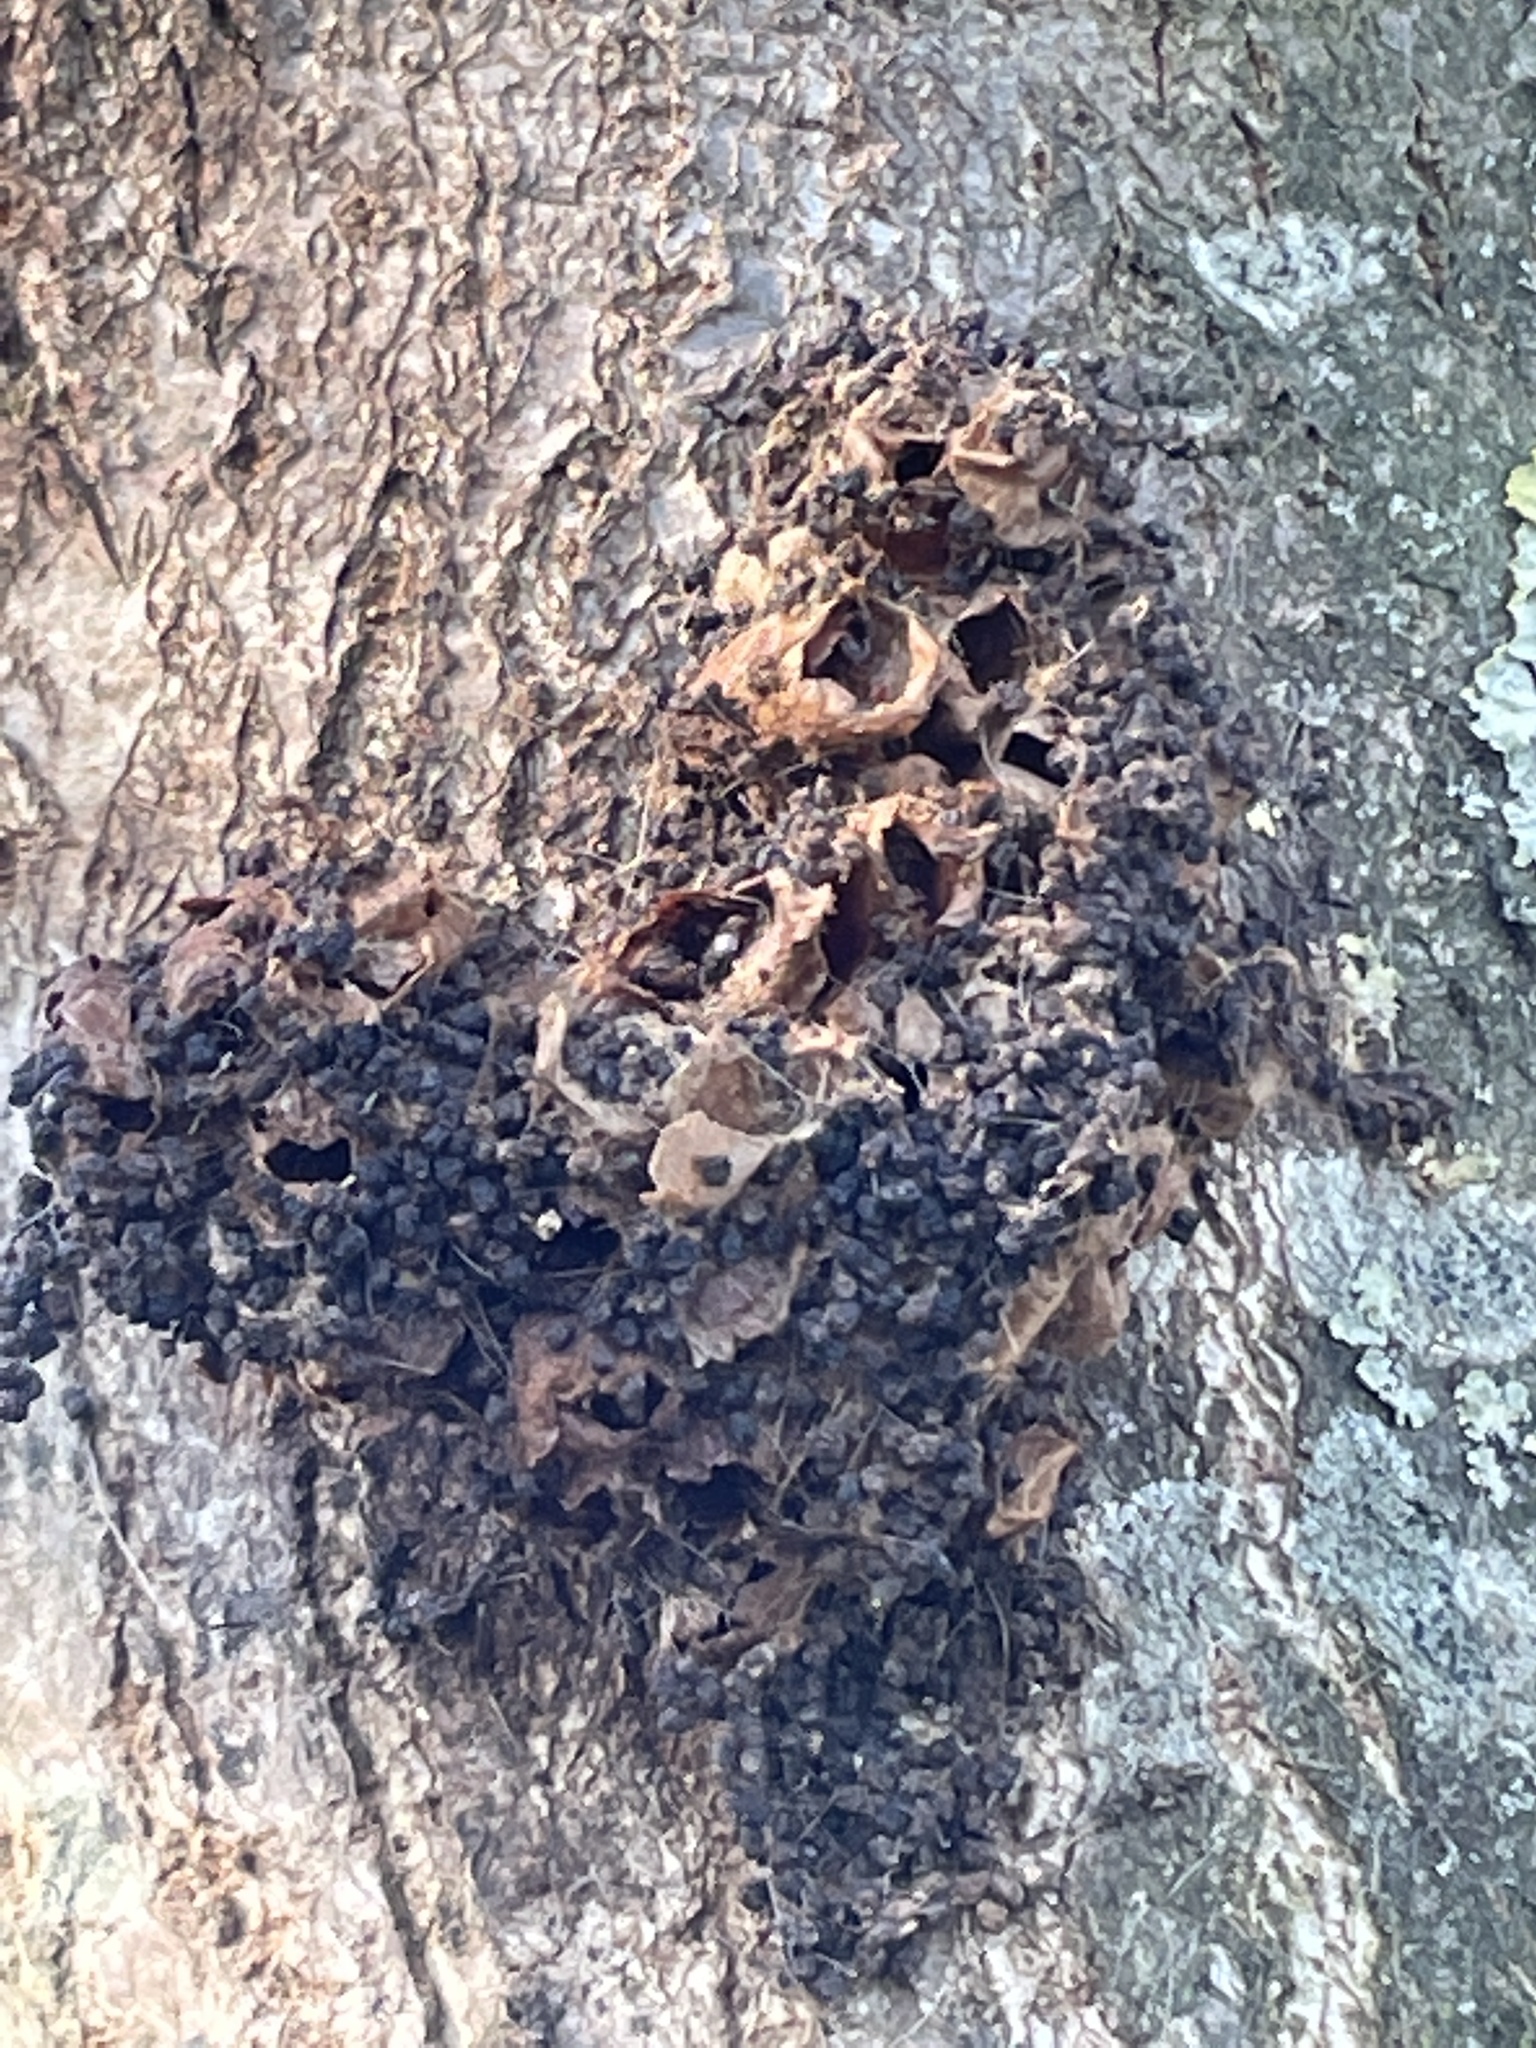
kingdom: Animalia
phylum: Arthropoda
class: Insecta
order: Lepidoptera
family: Notodontidae
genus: Thaumetopoea
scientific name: Thaumetopoea processionea
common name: Oak processionea
